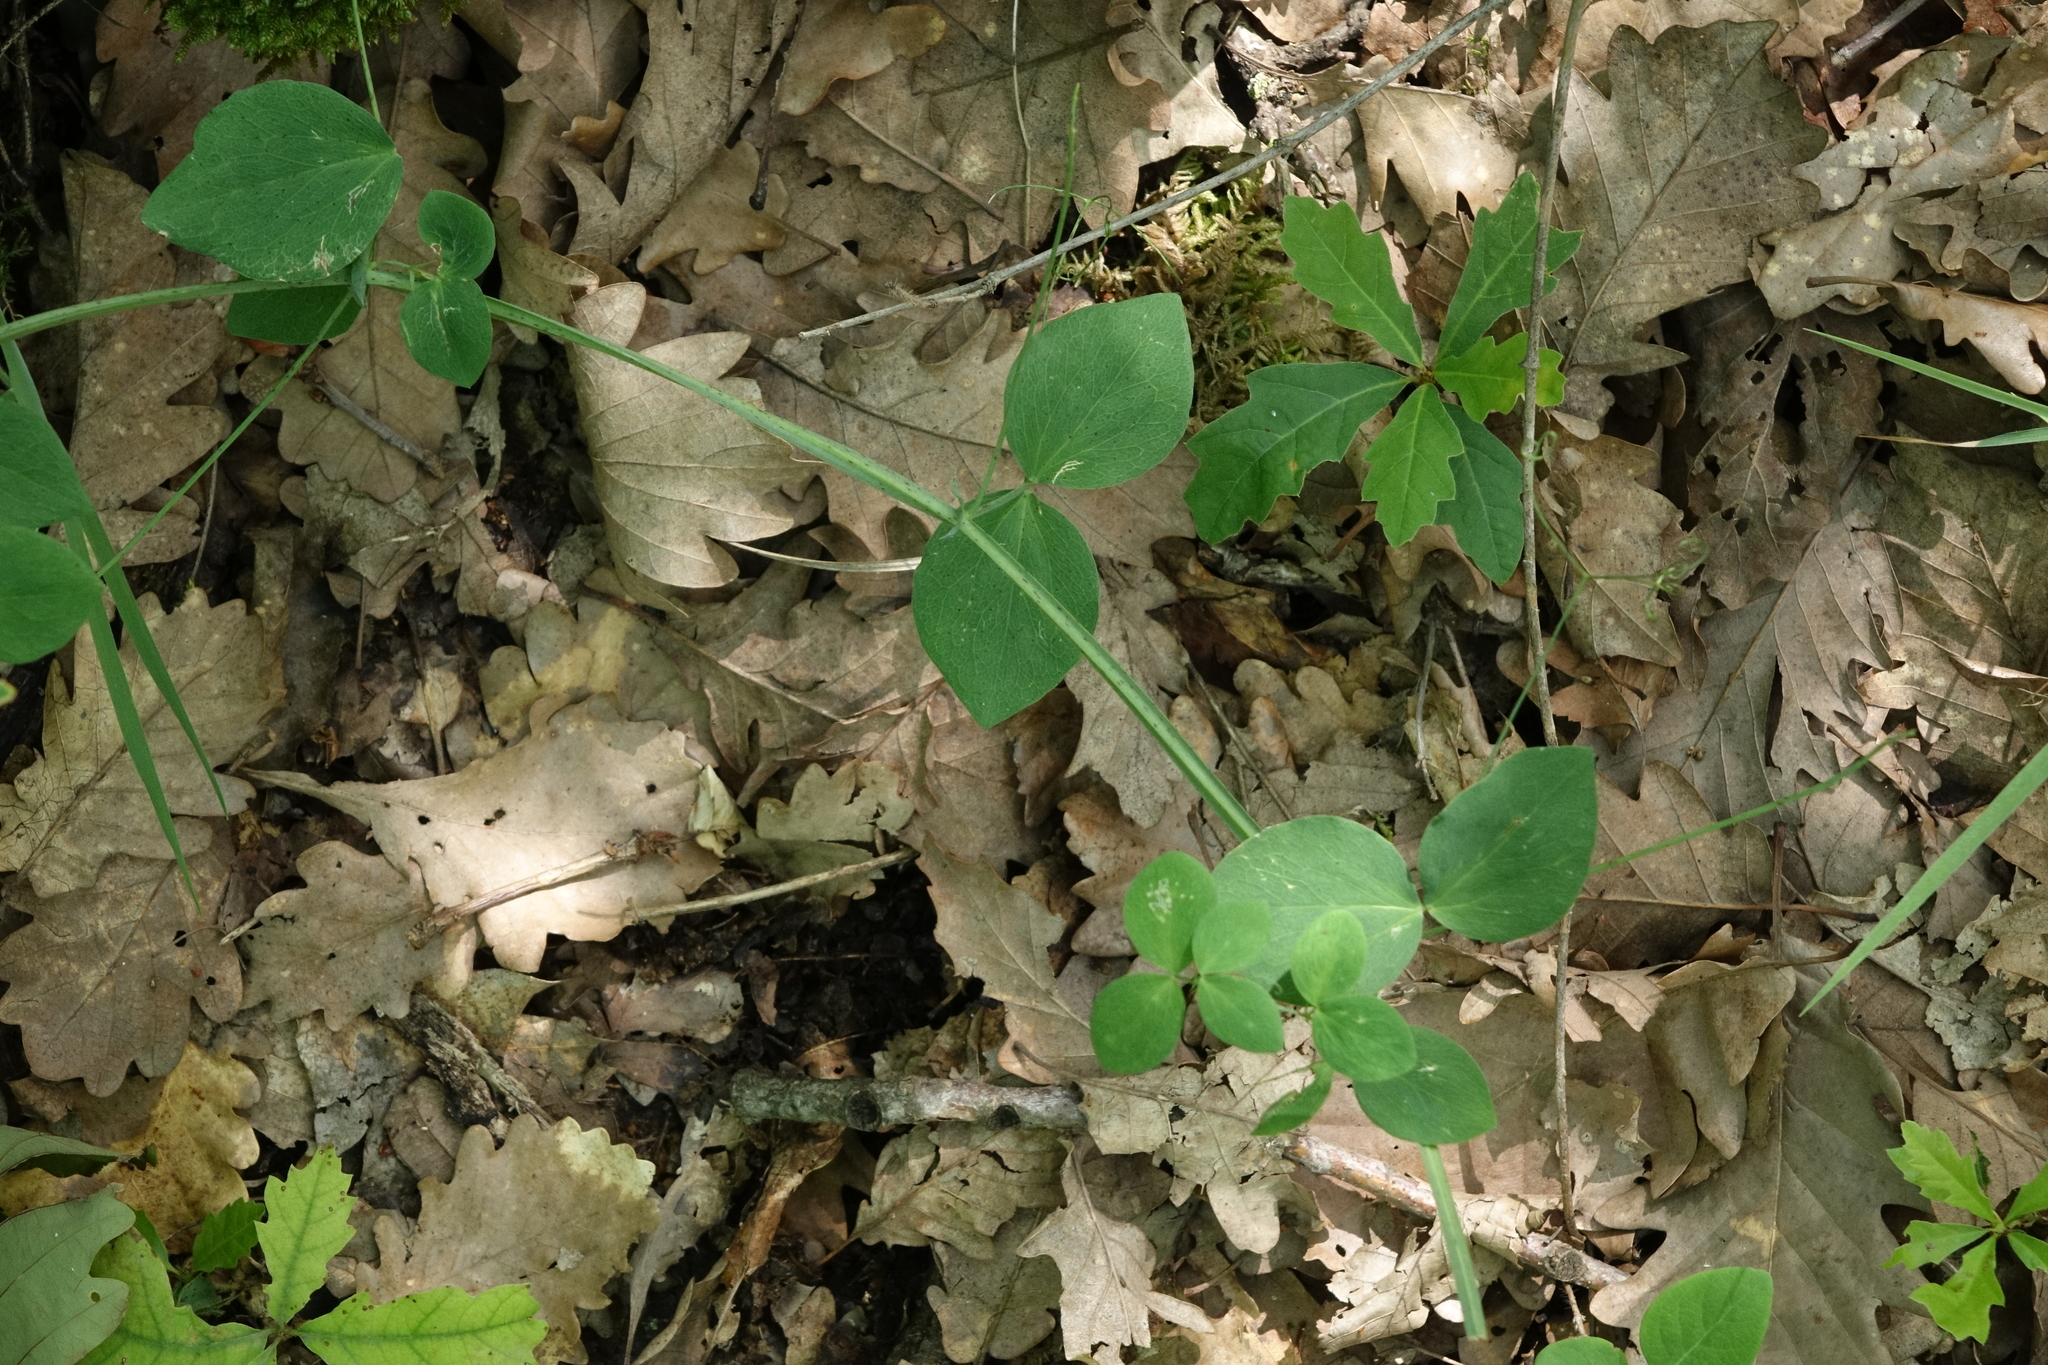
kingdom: Plantae
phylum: Tracheophyta
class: Magnoliopsida
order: Fabales
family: Fabaceae
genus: Lathyrus
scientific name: Lathyrus miniatus
